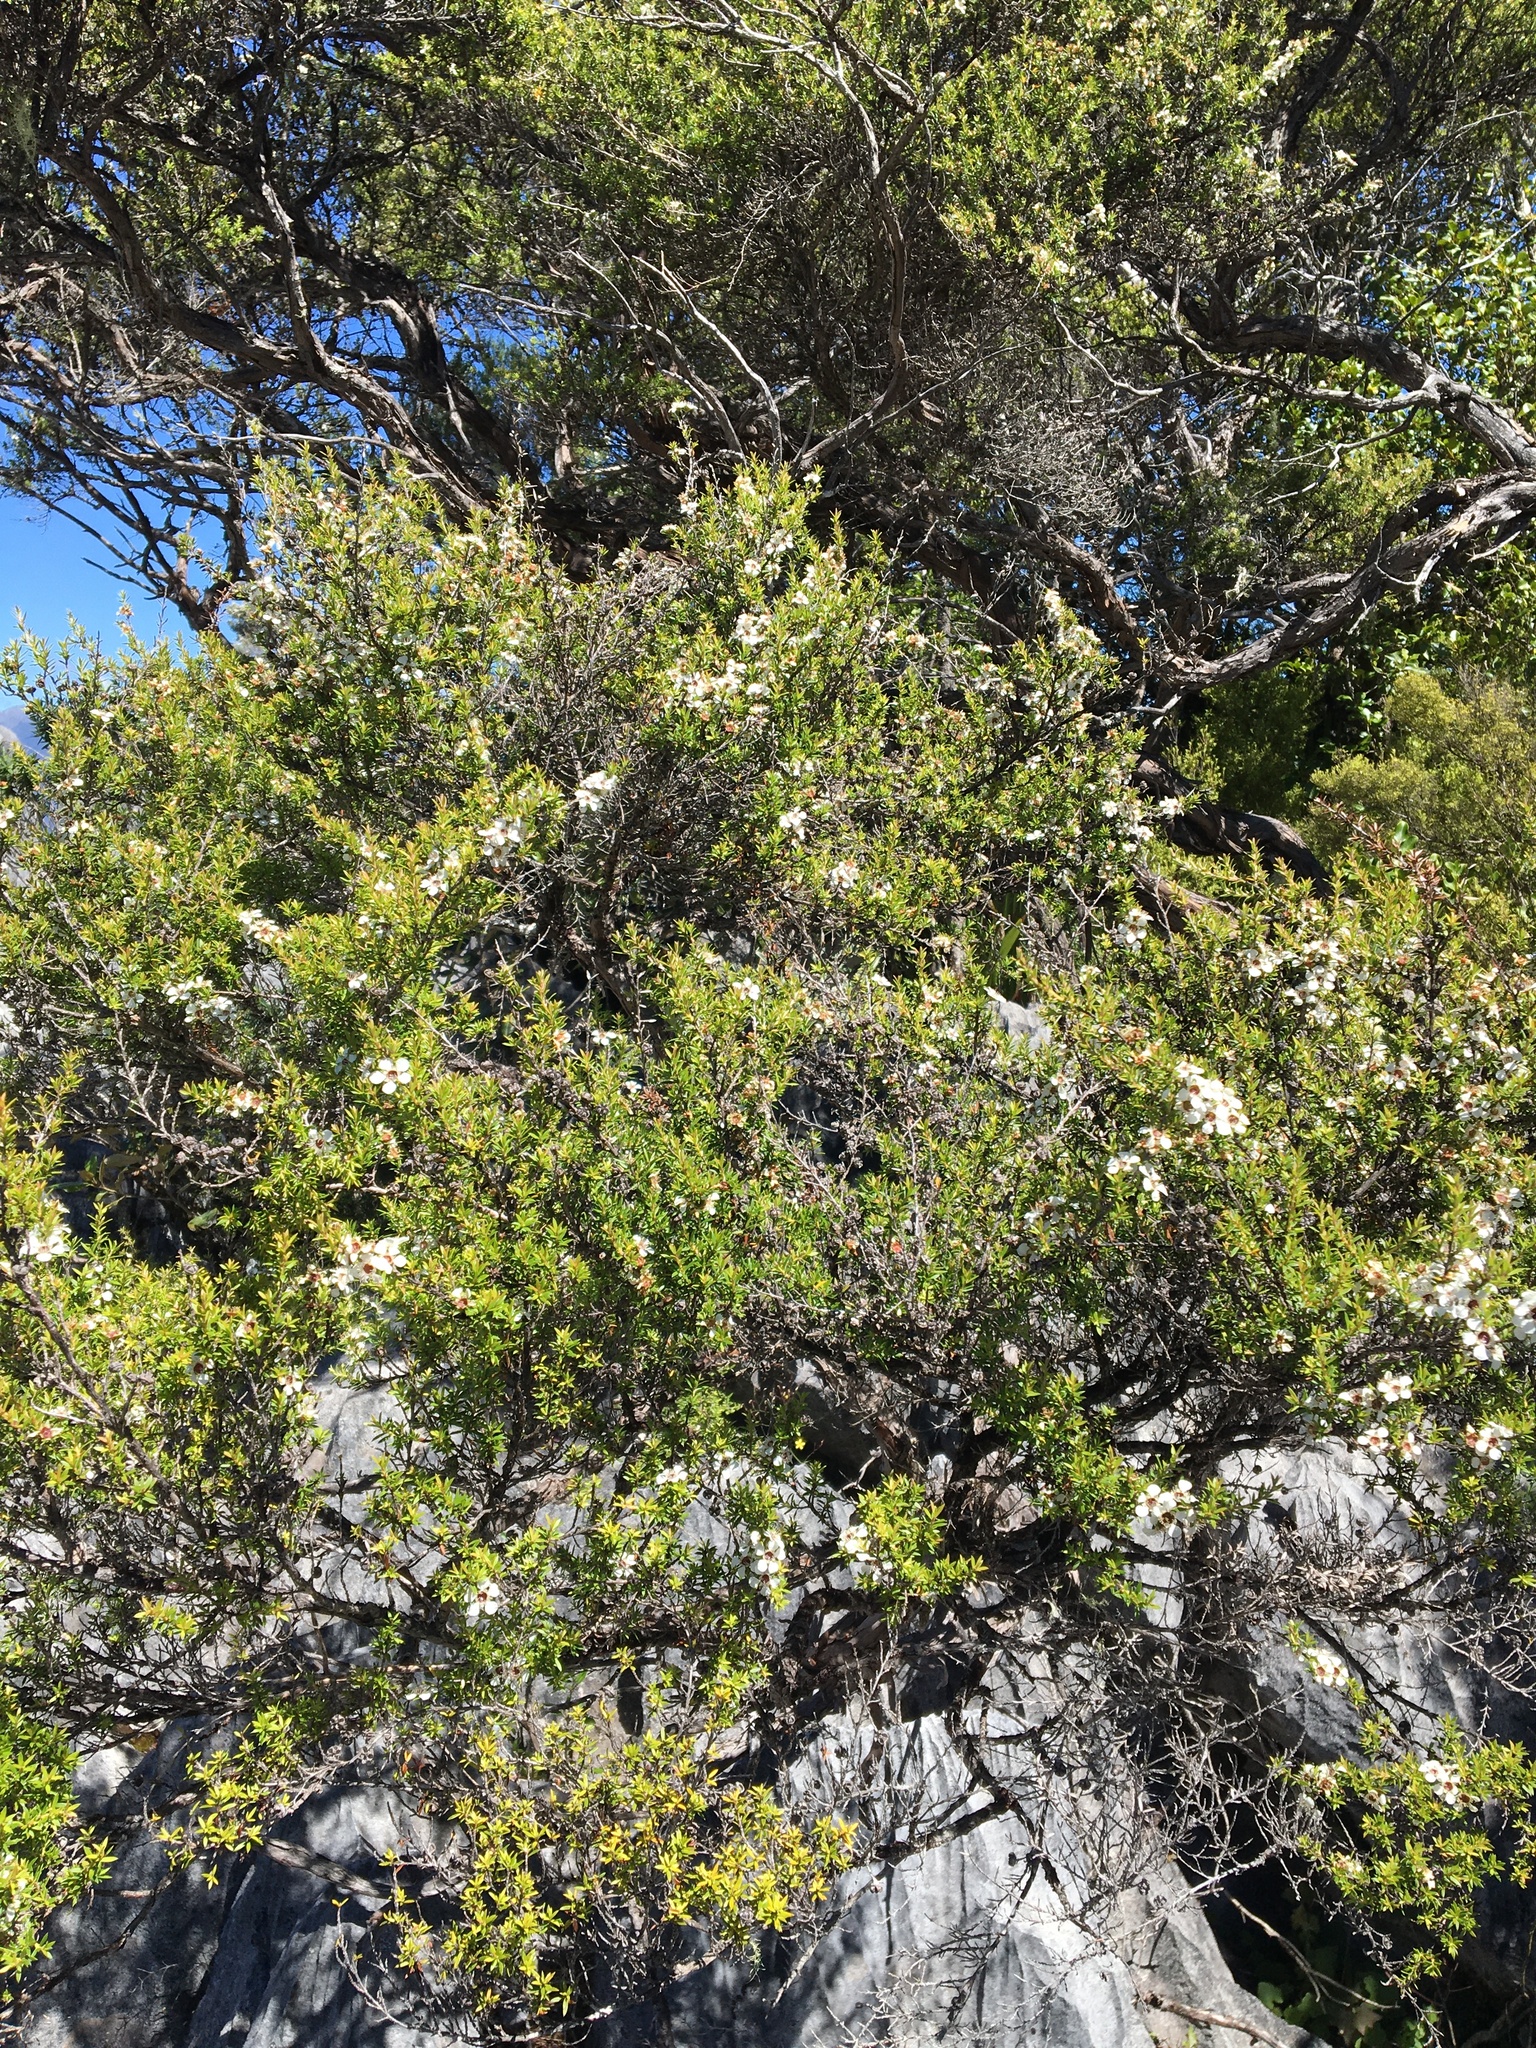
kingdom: Plantae
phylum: Tracheophyta
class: Magnoliopsida
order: Myrtales
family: Myrtaceae
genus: Leptospermum
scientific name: Leptospermum scoparium
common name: Broom tea-tree
